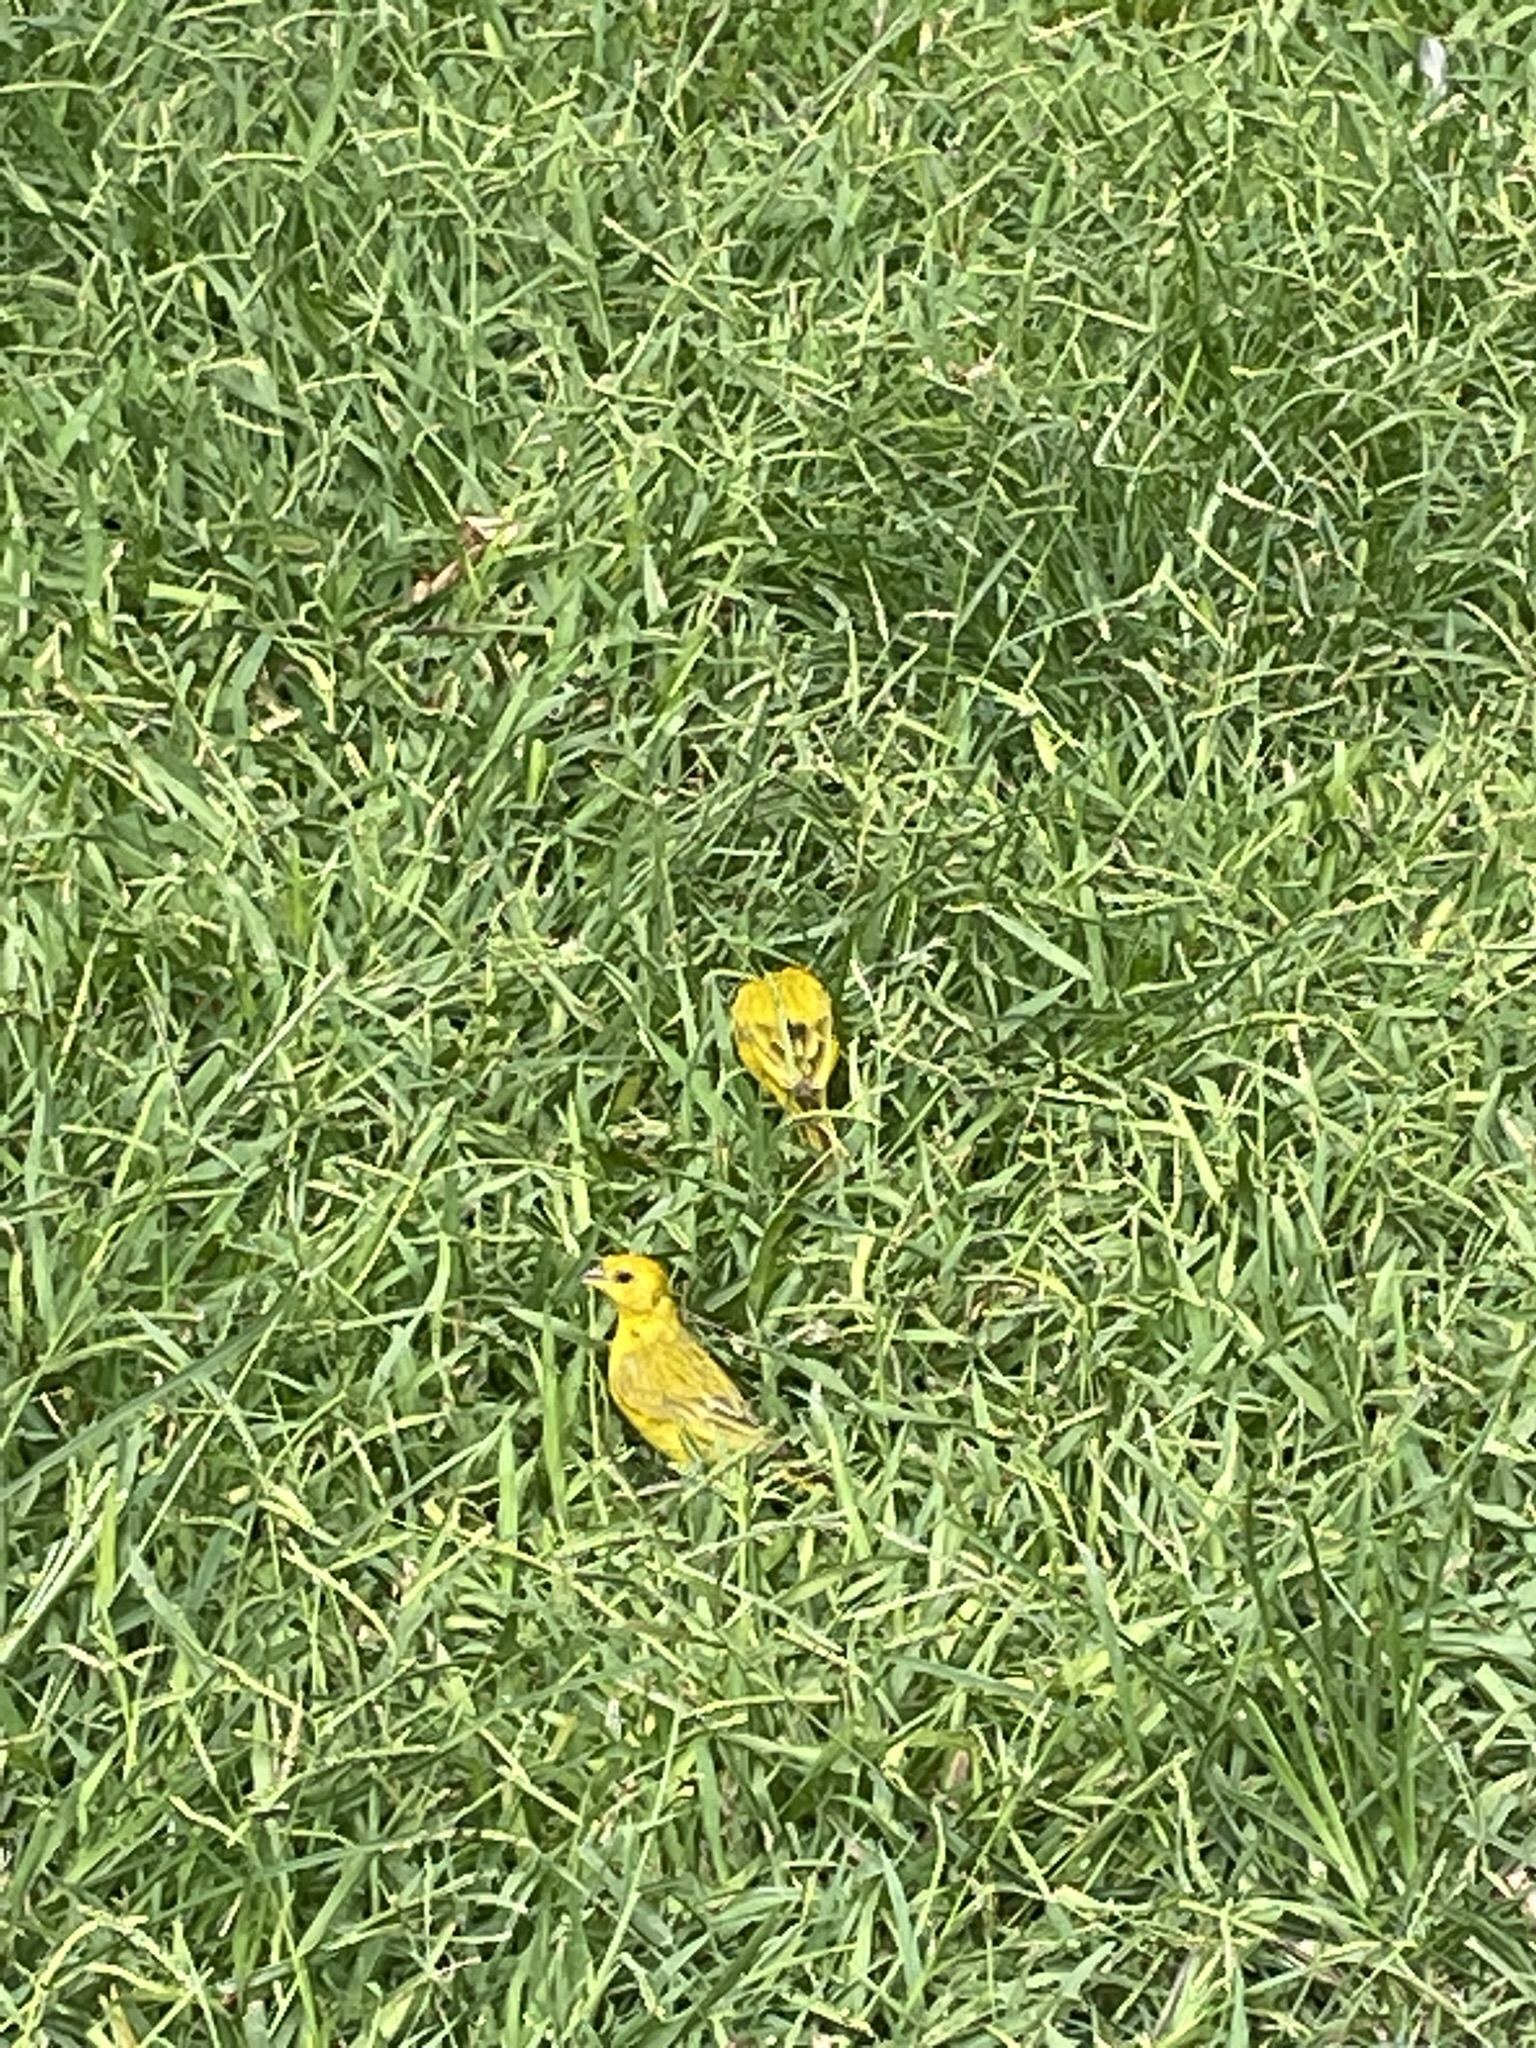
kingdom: Animalia
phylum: Chordata
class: Aves
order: Passeriformes
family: Thraupidae
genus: Sicalis
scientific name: Sicalis flaveola
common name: Saffron finch
